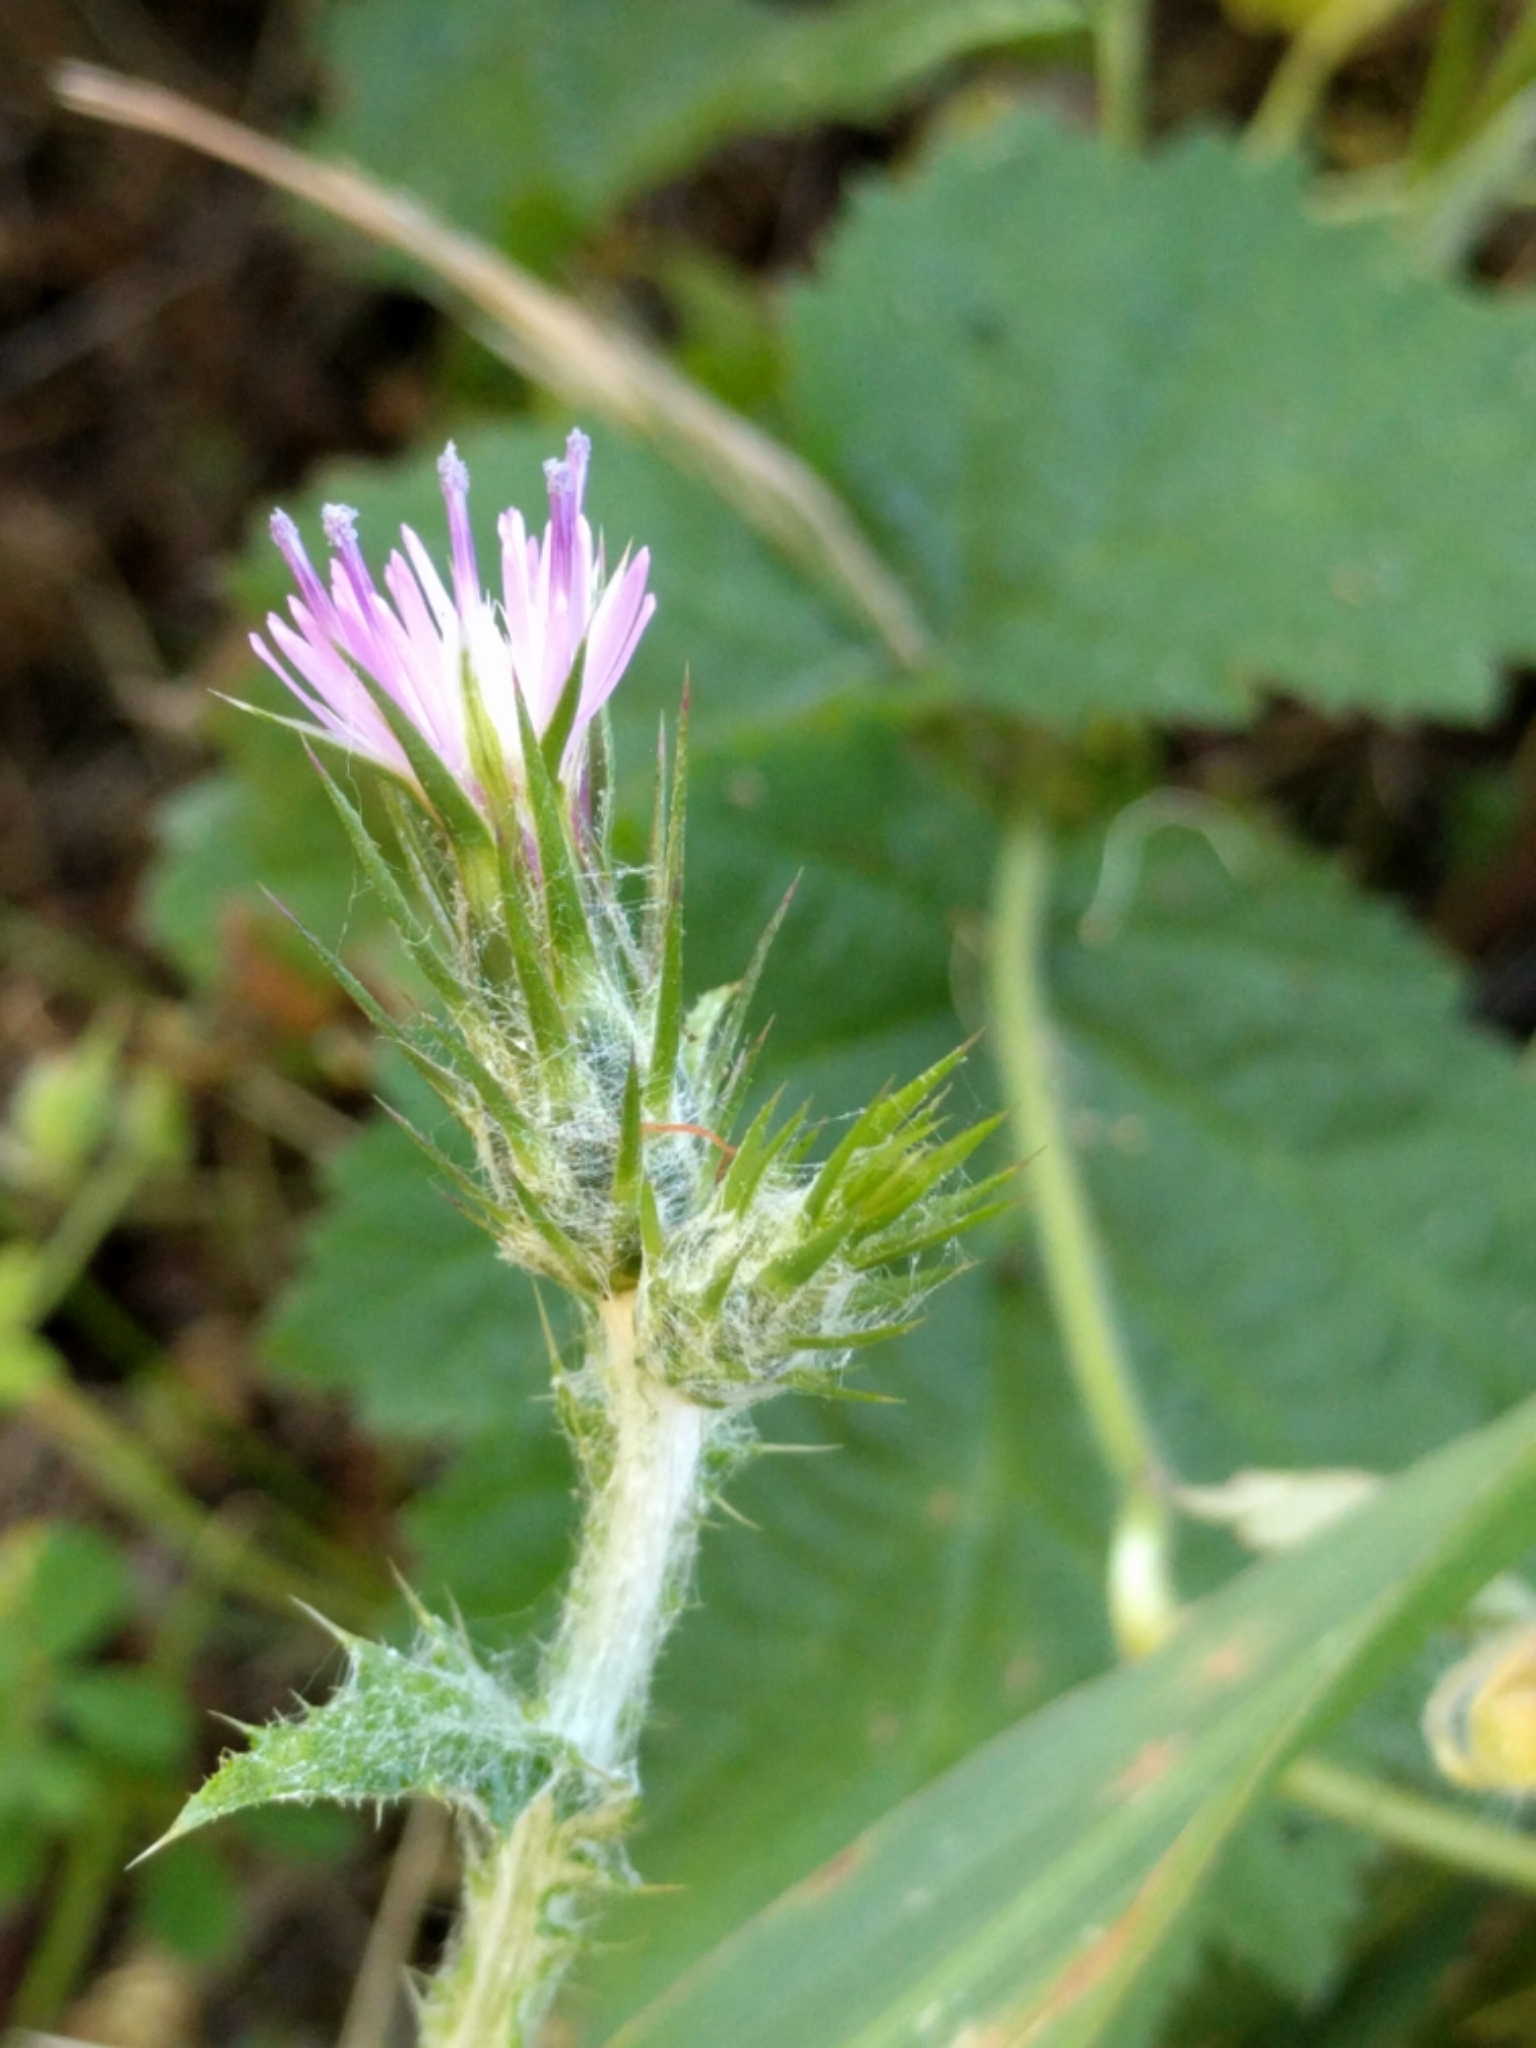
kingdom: Plantae
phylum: Tracheophyta
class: Magnoliopsida
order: Asterales
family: Asteraceae
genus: Carduus
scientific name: Carduus pycnocephalus
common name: Plymouth thistle
